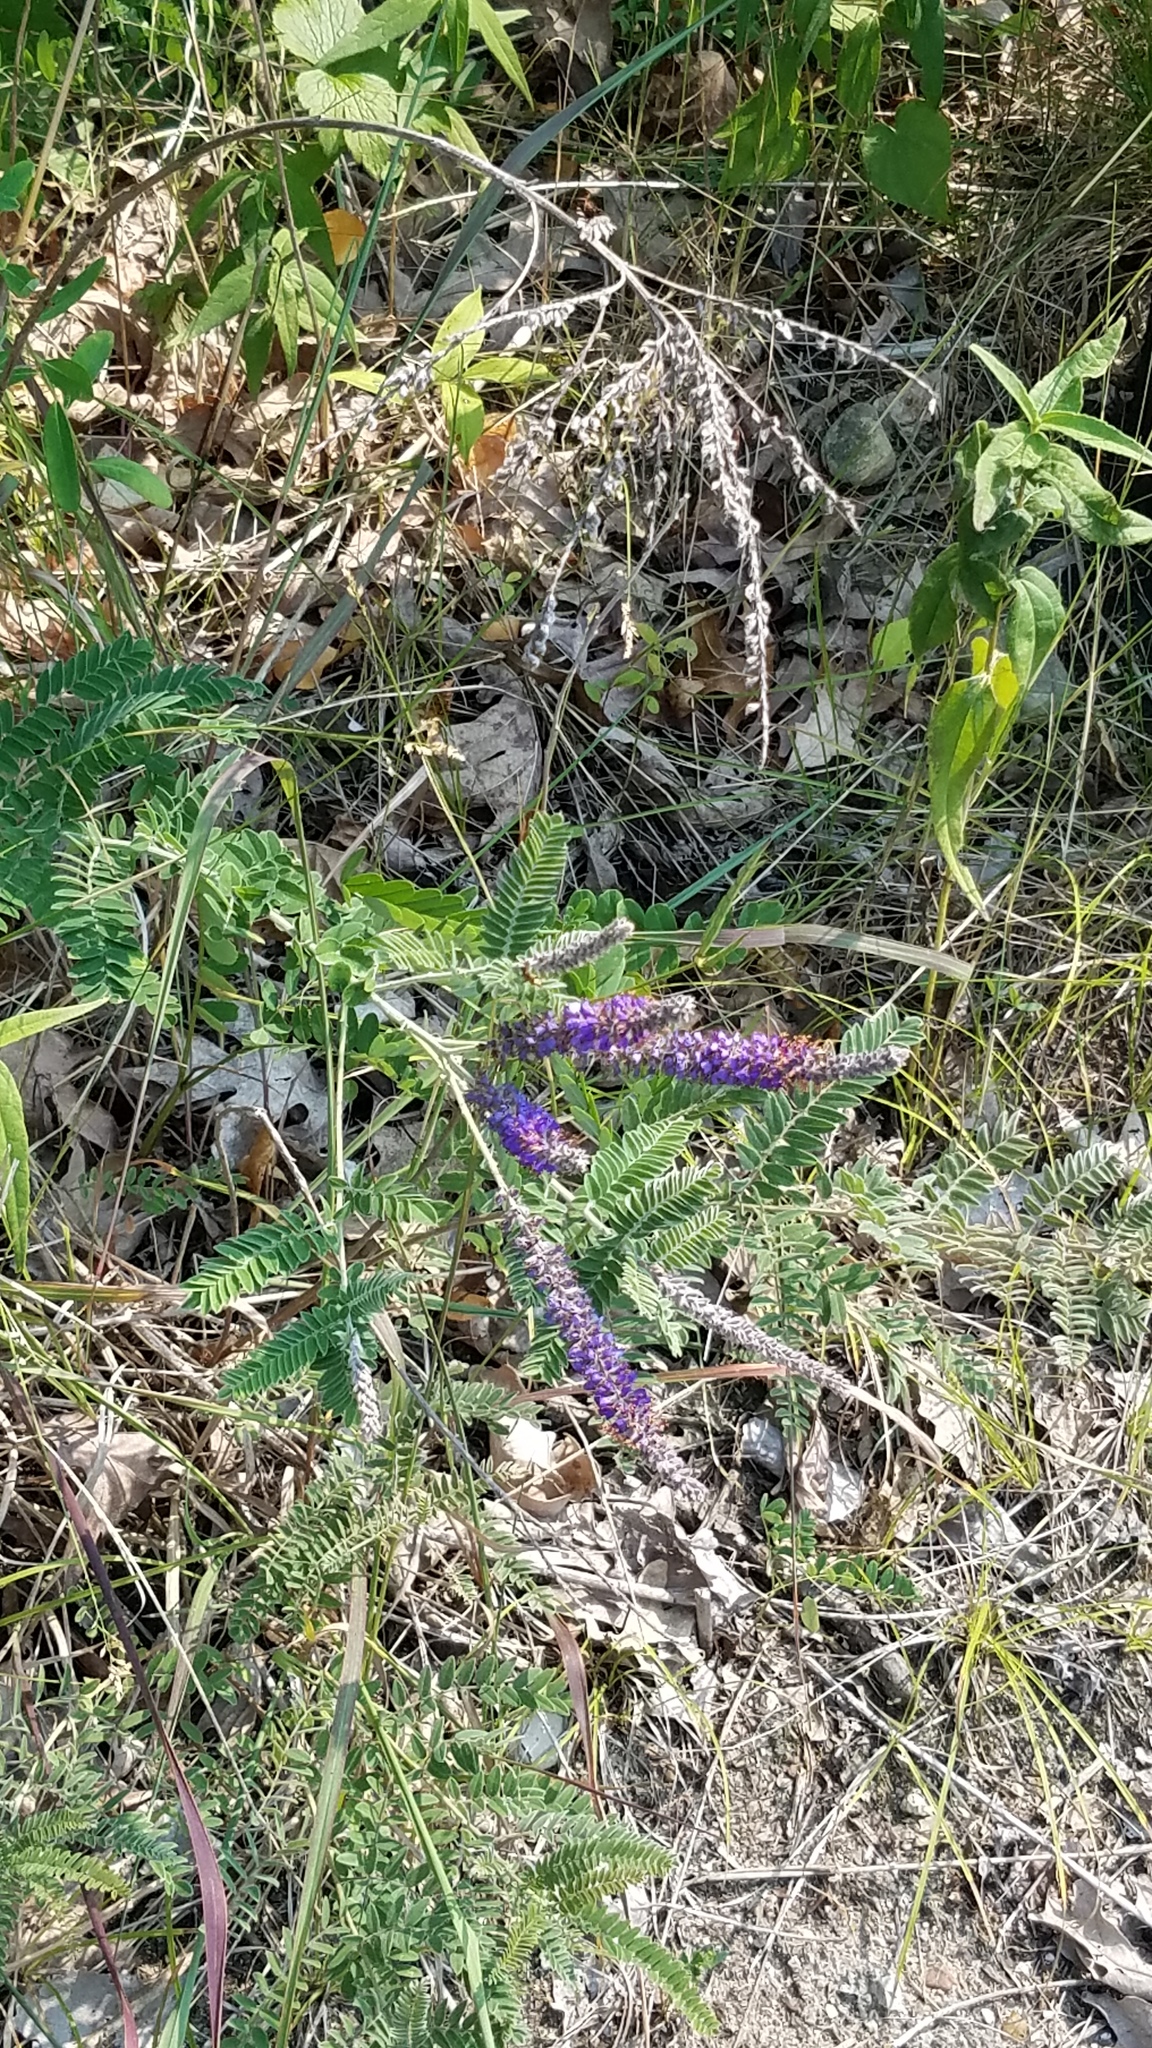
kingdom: Plantae
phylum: Tracheophyta
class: Magnoliopsida
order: Fabales
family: Fabaceae
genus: Amorpha
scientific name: Amorpha canescens
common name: Leadplant
